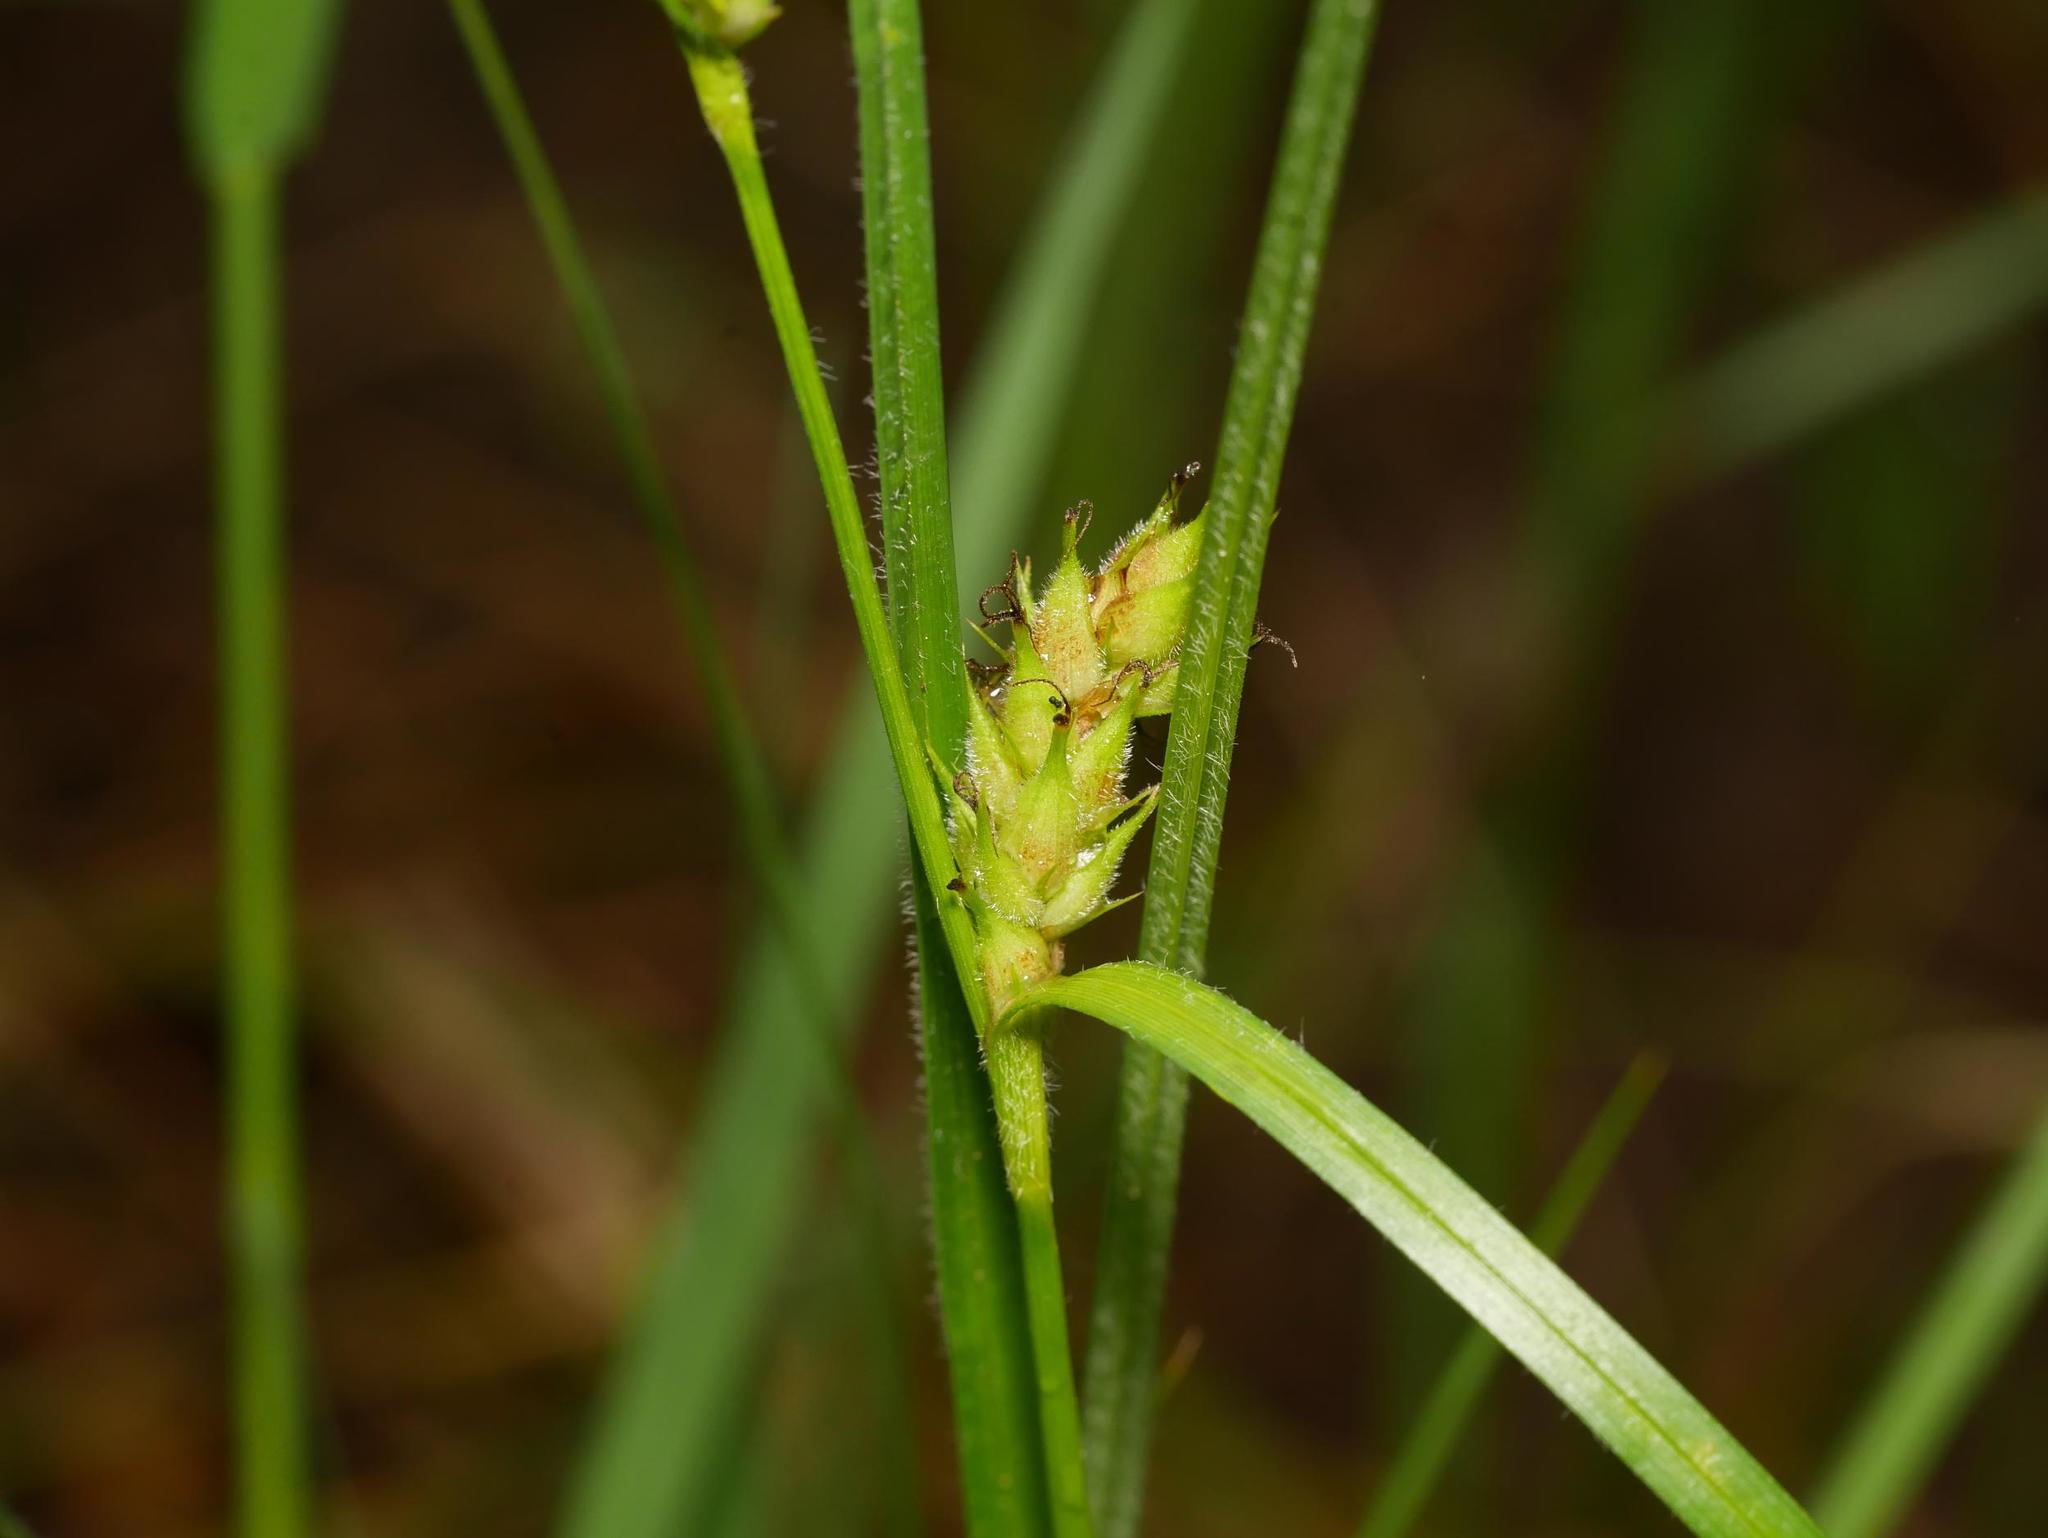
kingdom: Plantae
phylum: Tracheophyta
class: Liliopsida
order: Poales
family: Cyperaceae
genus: Carex
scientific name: Carex hirta
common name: Hairy sedge
